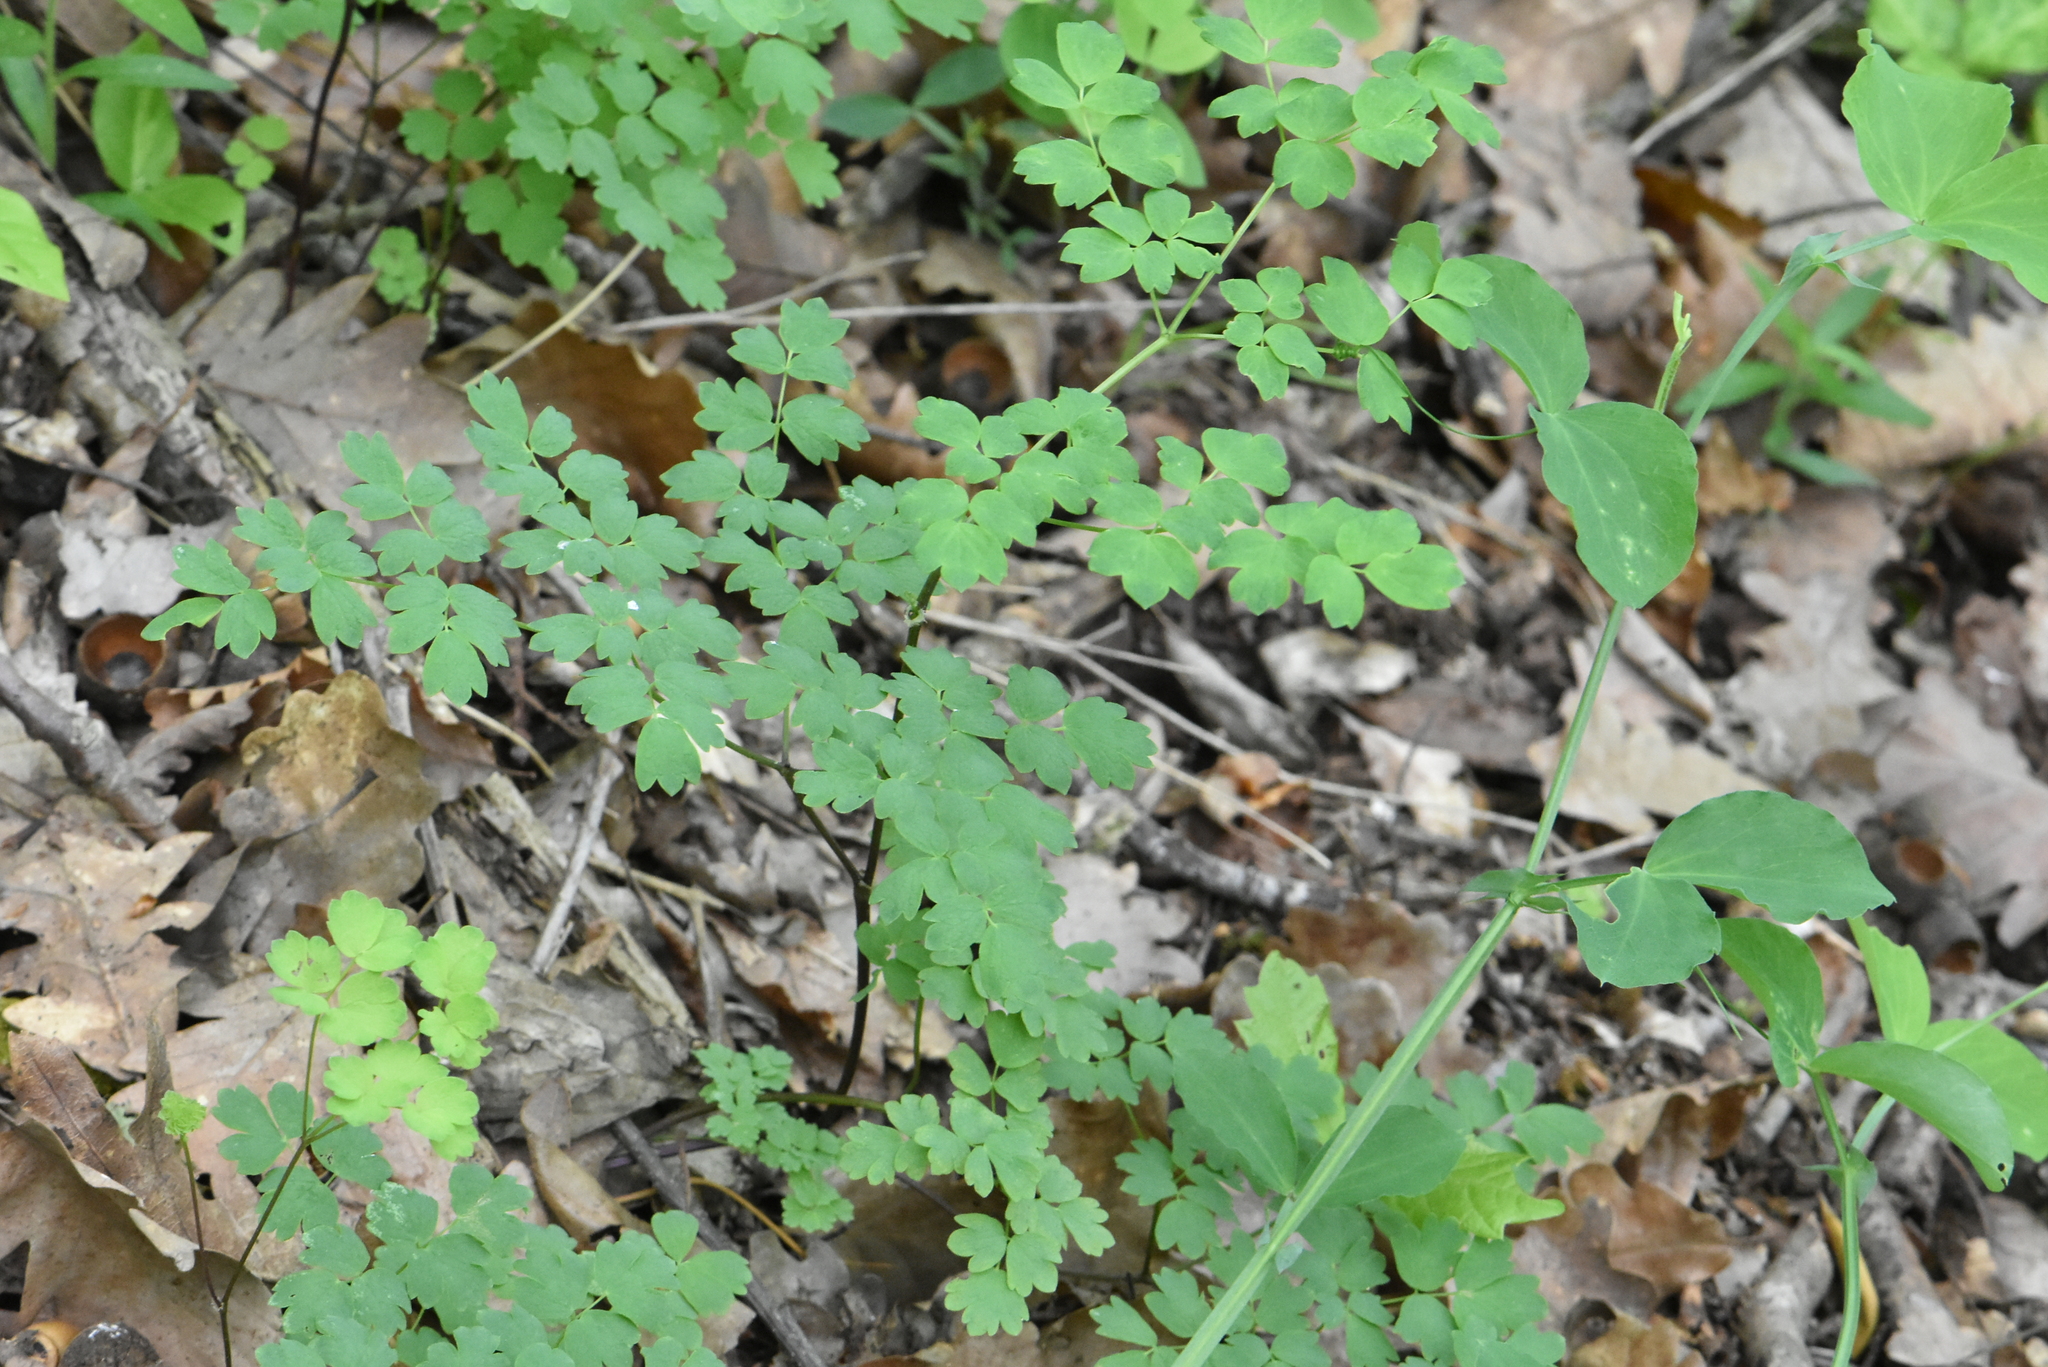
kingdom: Plantae
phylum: Tracheophyta
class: Magnoliopsida
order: Ranunculales
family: Ranunculaceae
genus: Thalictrum
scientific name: Thalictrum minus
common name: Lesser meadow-rue
